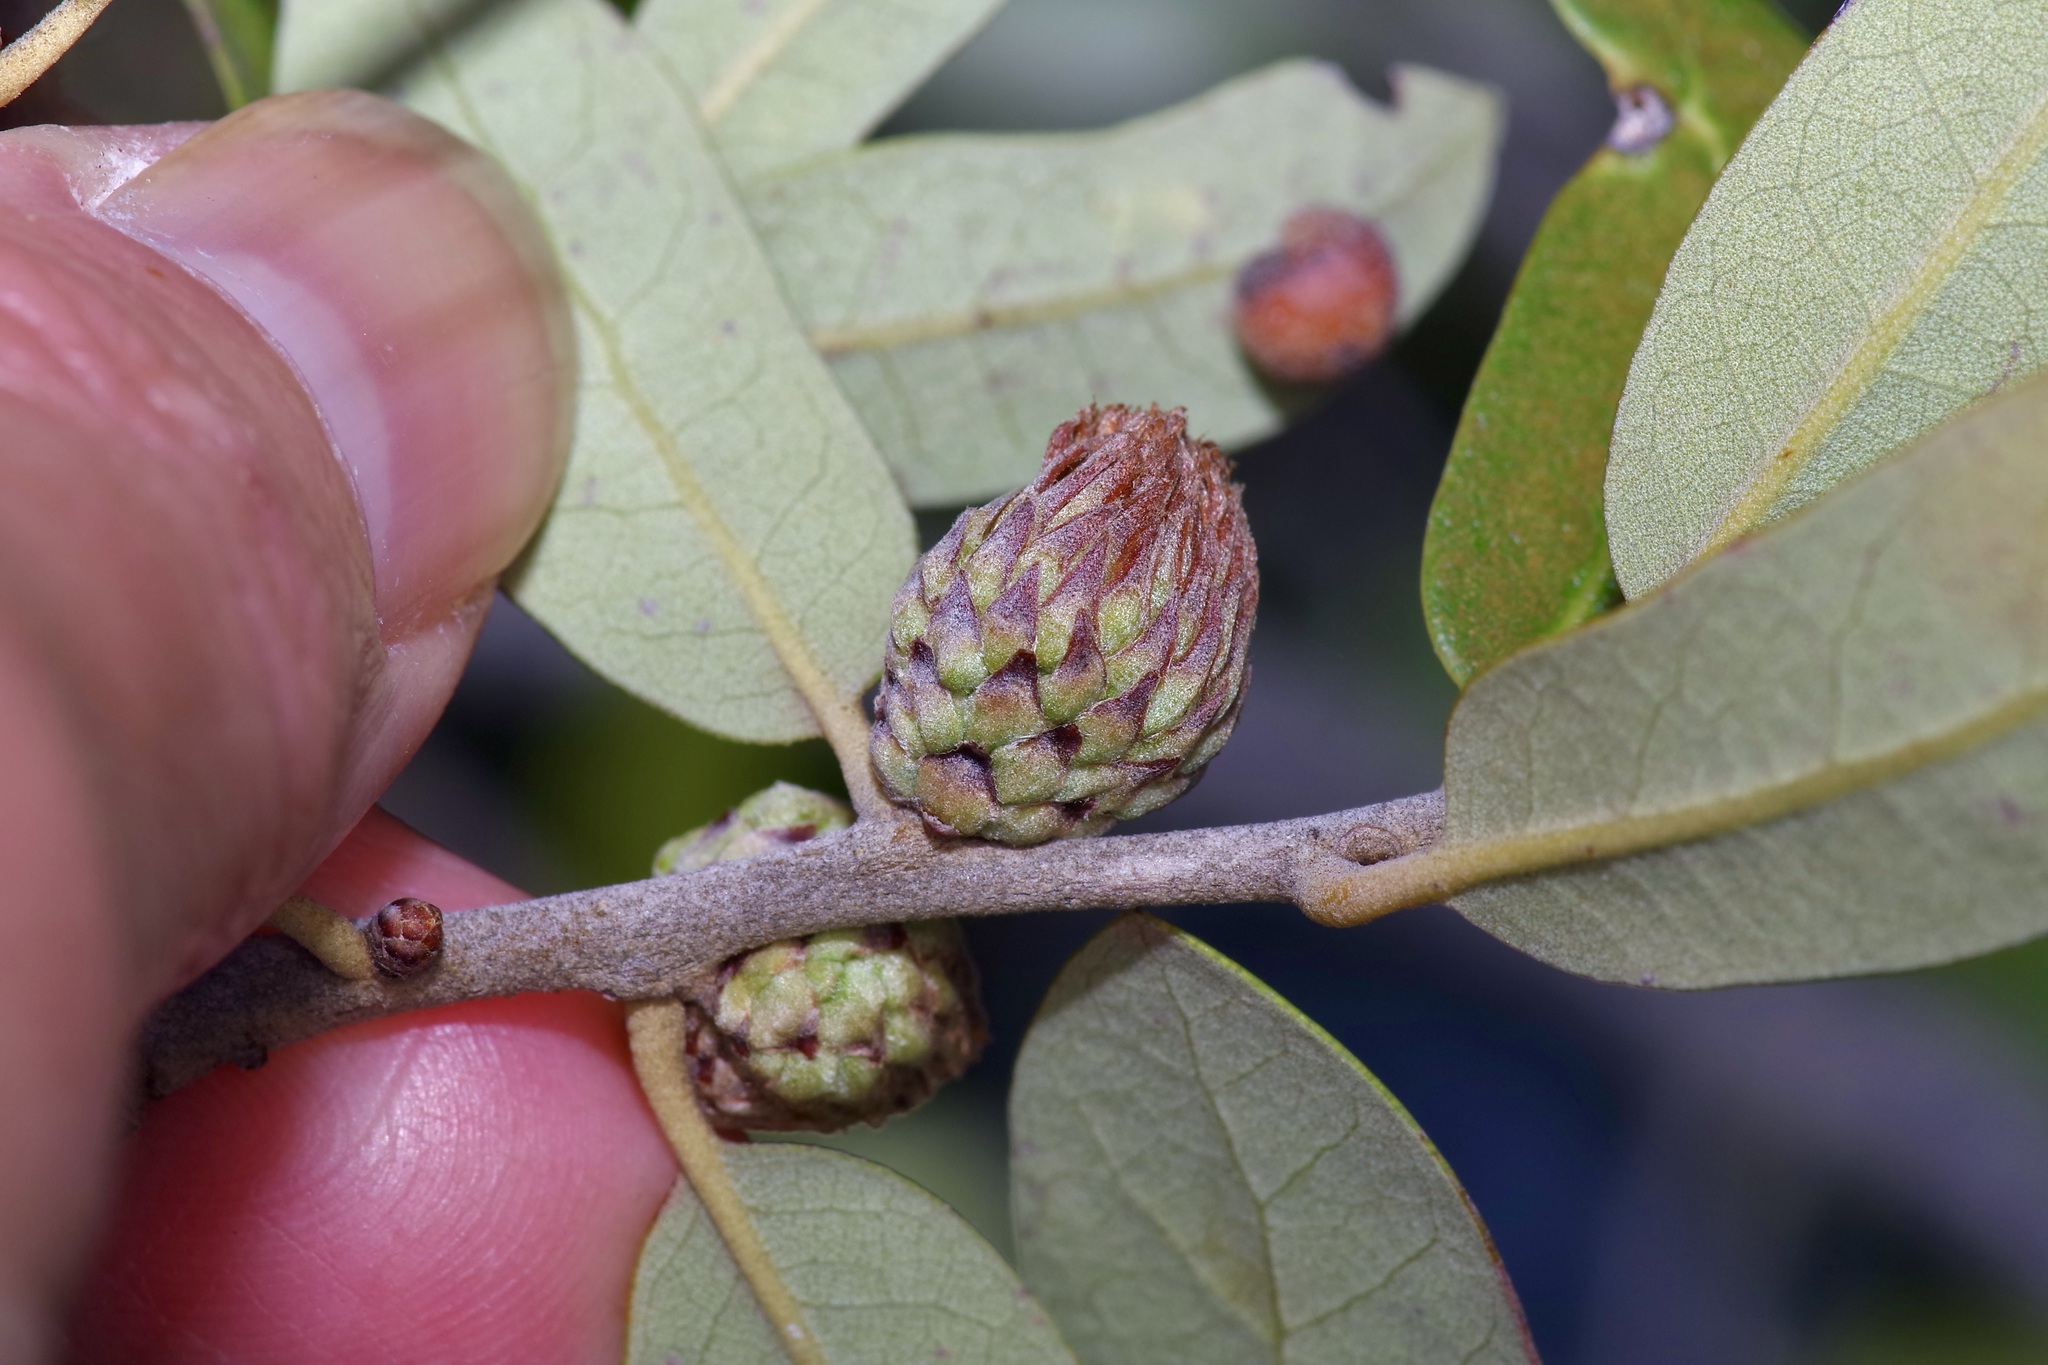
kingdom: Animalia
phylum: Arthropoda
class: Insecta
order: Hymenoptera
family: Cynipidae
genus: Andricus
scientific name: Andricus quercusfoliatus
